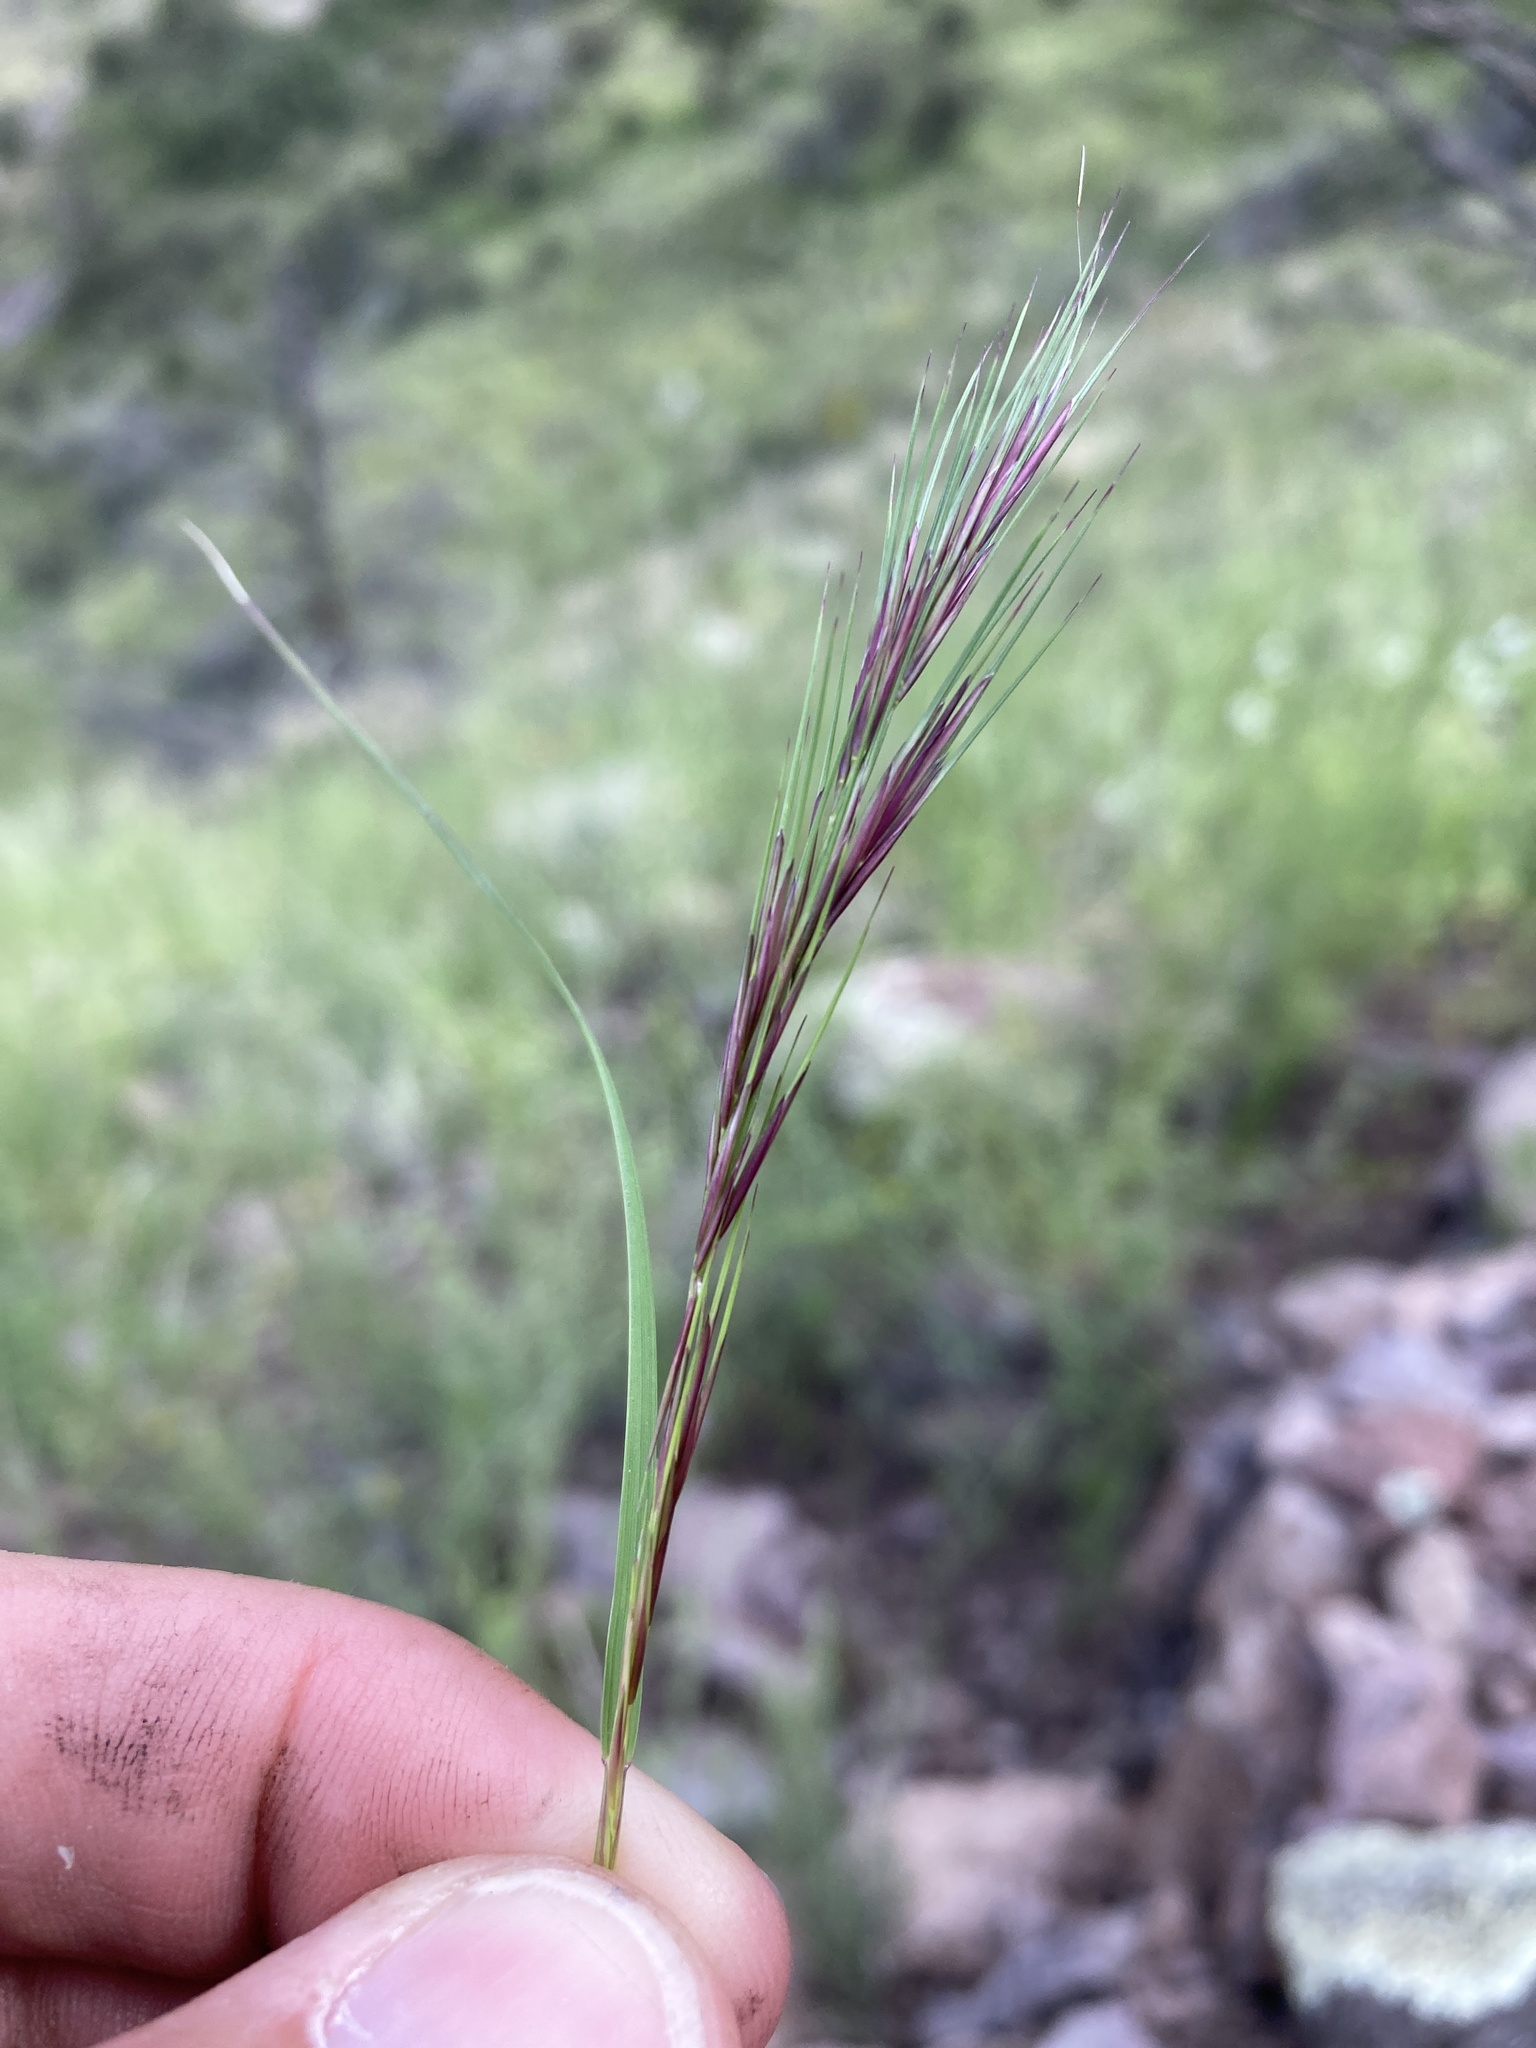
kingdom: Plantae
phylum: Tracheophyta
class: Liliopsida
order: Poales
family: Poaceae
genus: Aristida
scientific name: Aristida adscensionis
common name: Sixweeks threeawn
